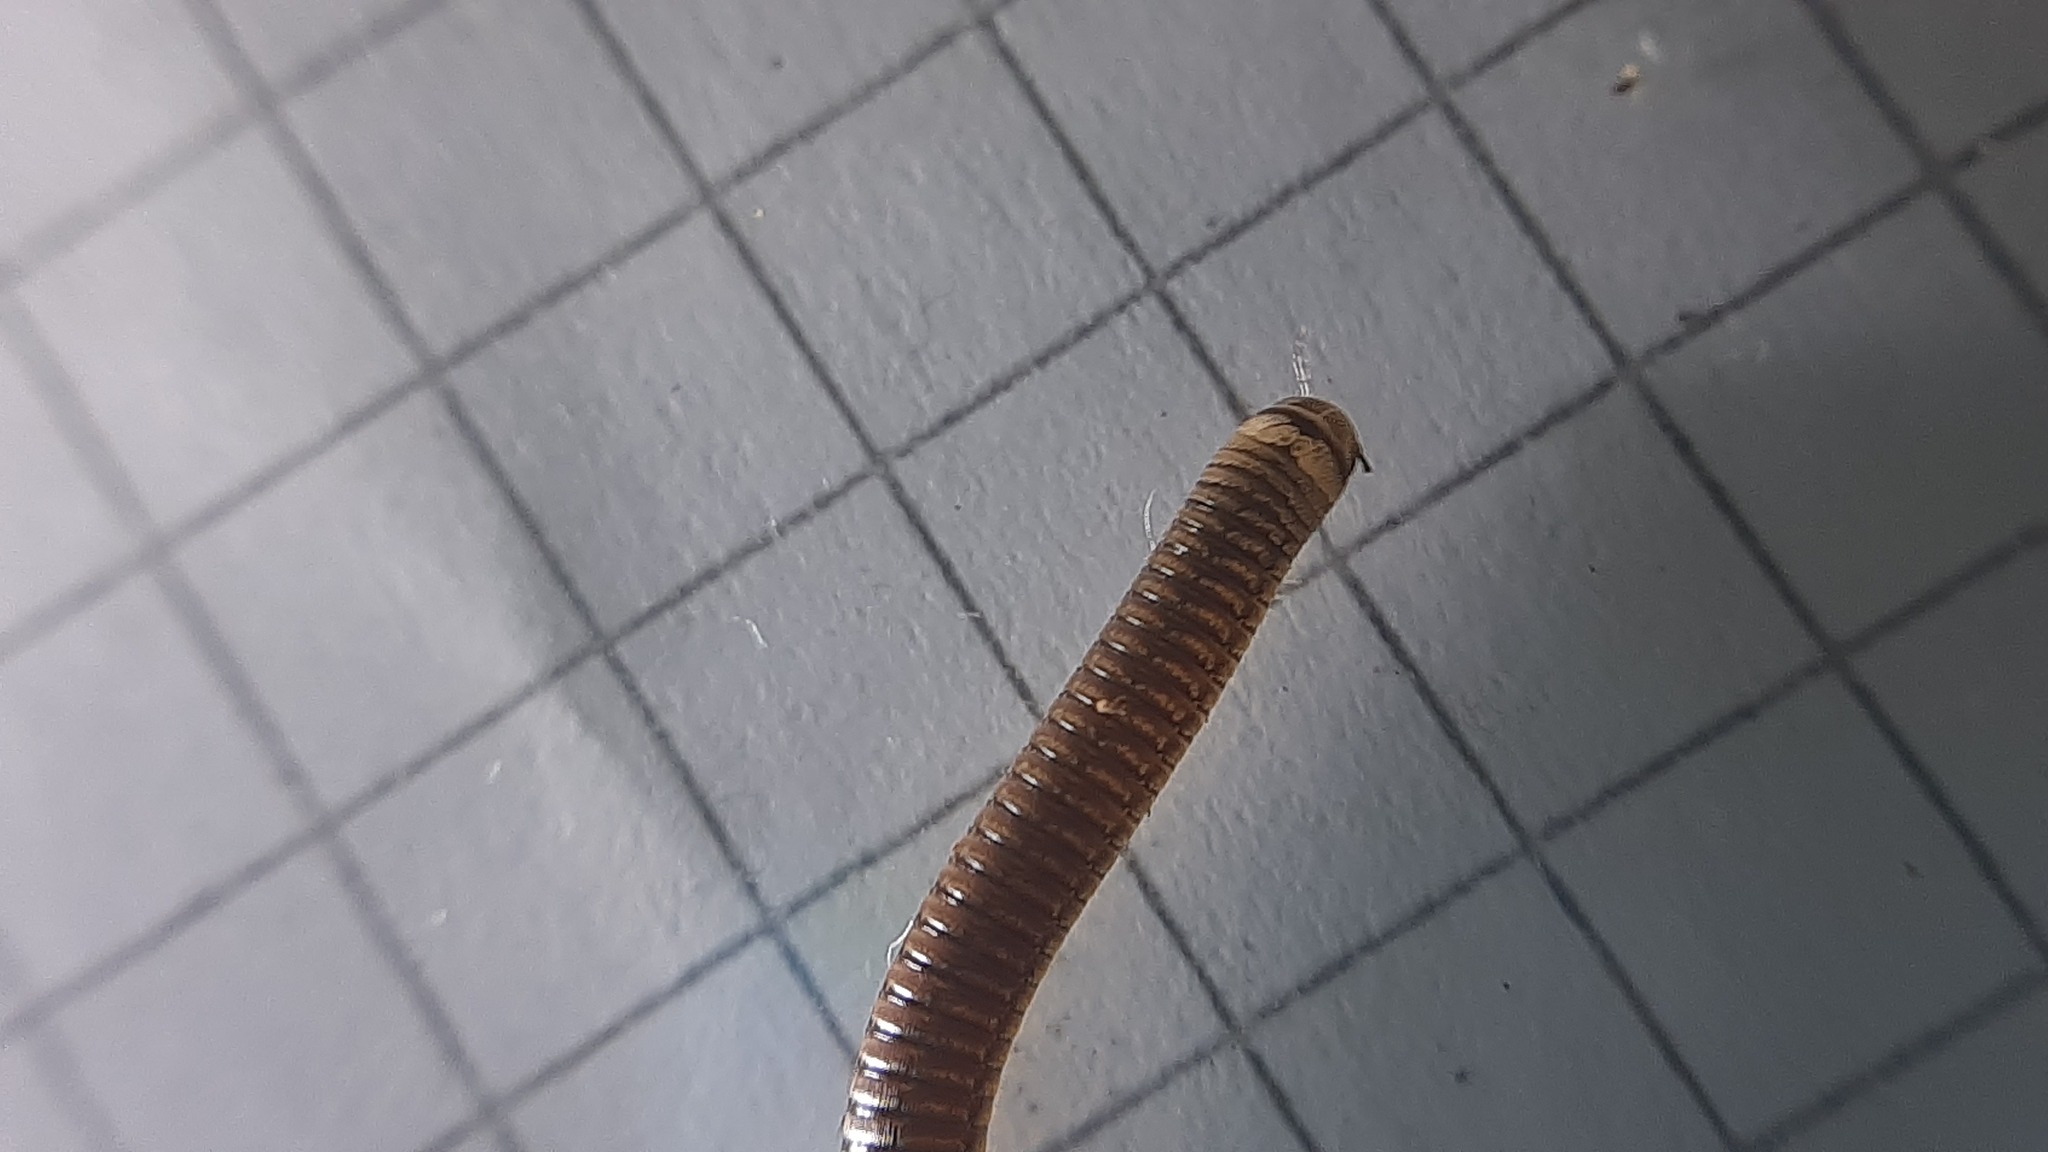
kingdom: Animalia
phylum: Arthropoda
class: Diplopoda
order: Julida
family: Julidae
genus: Cylindroiulus
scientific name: Cylindroiulus latzeli
